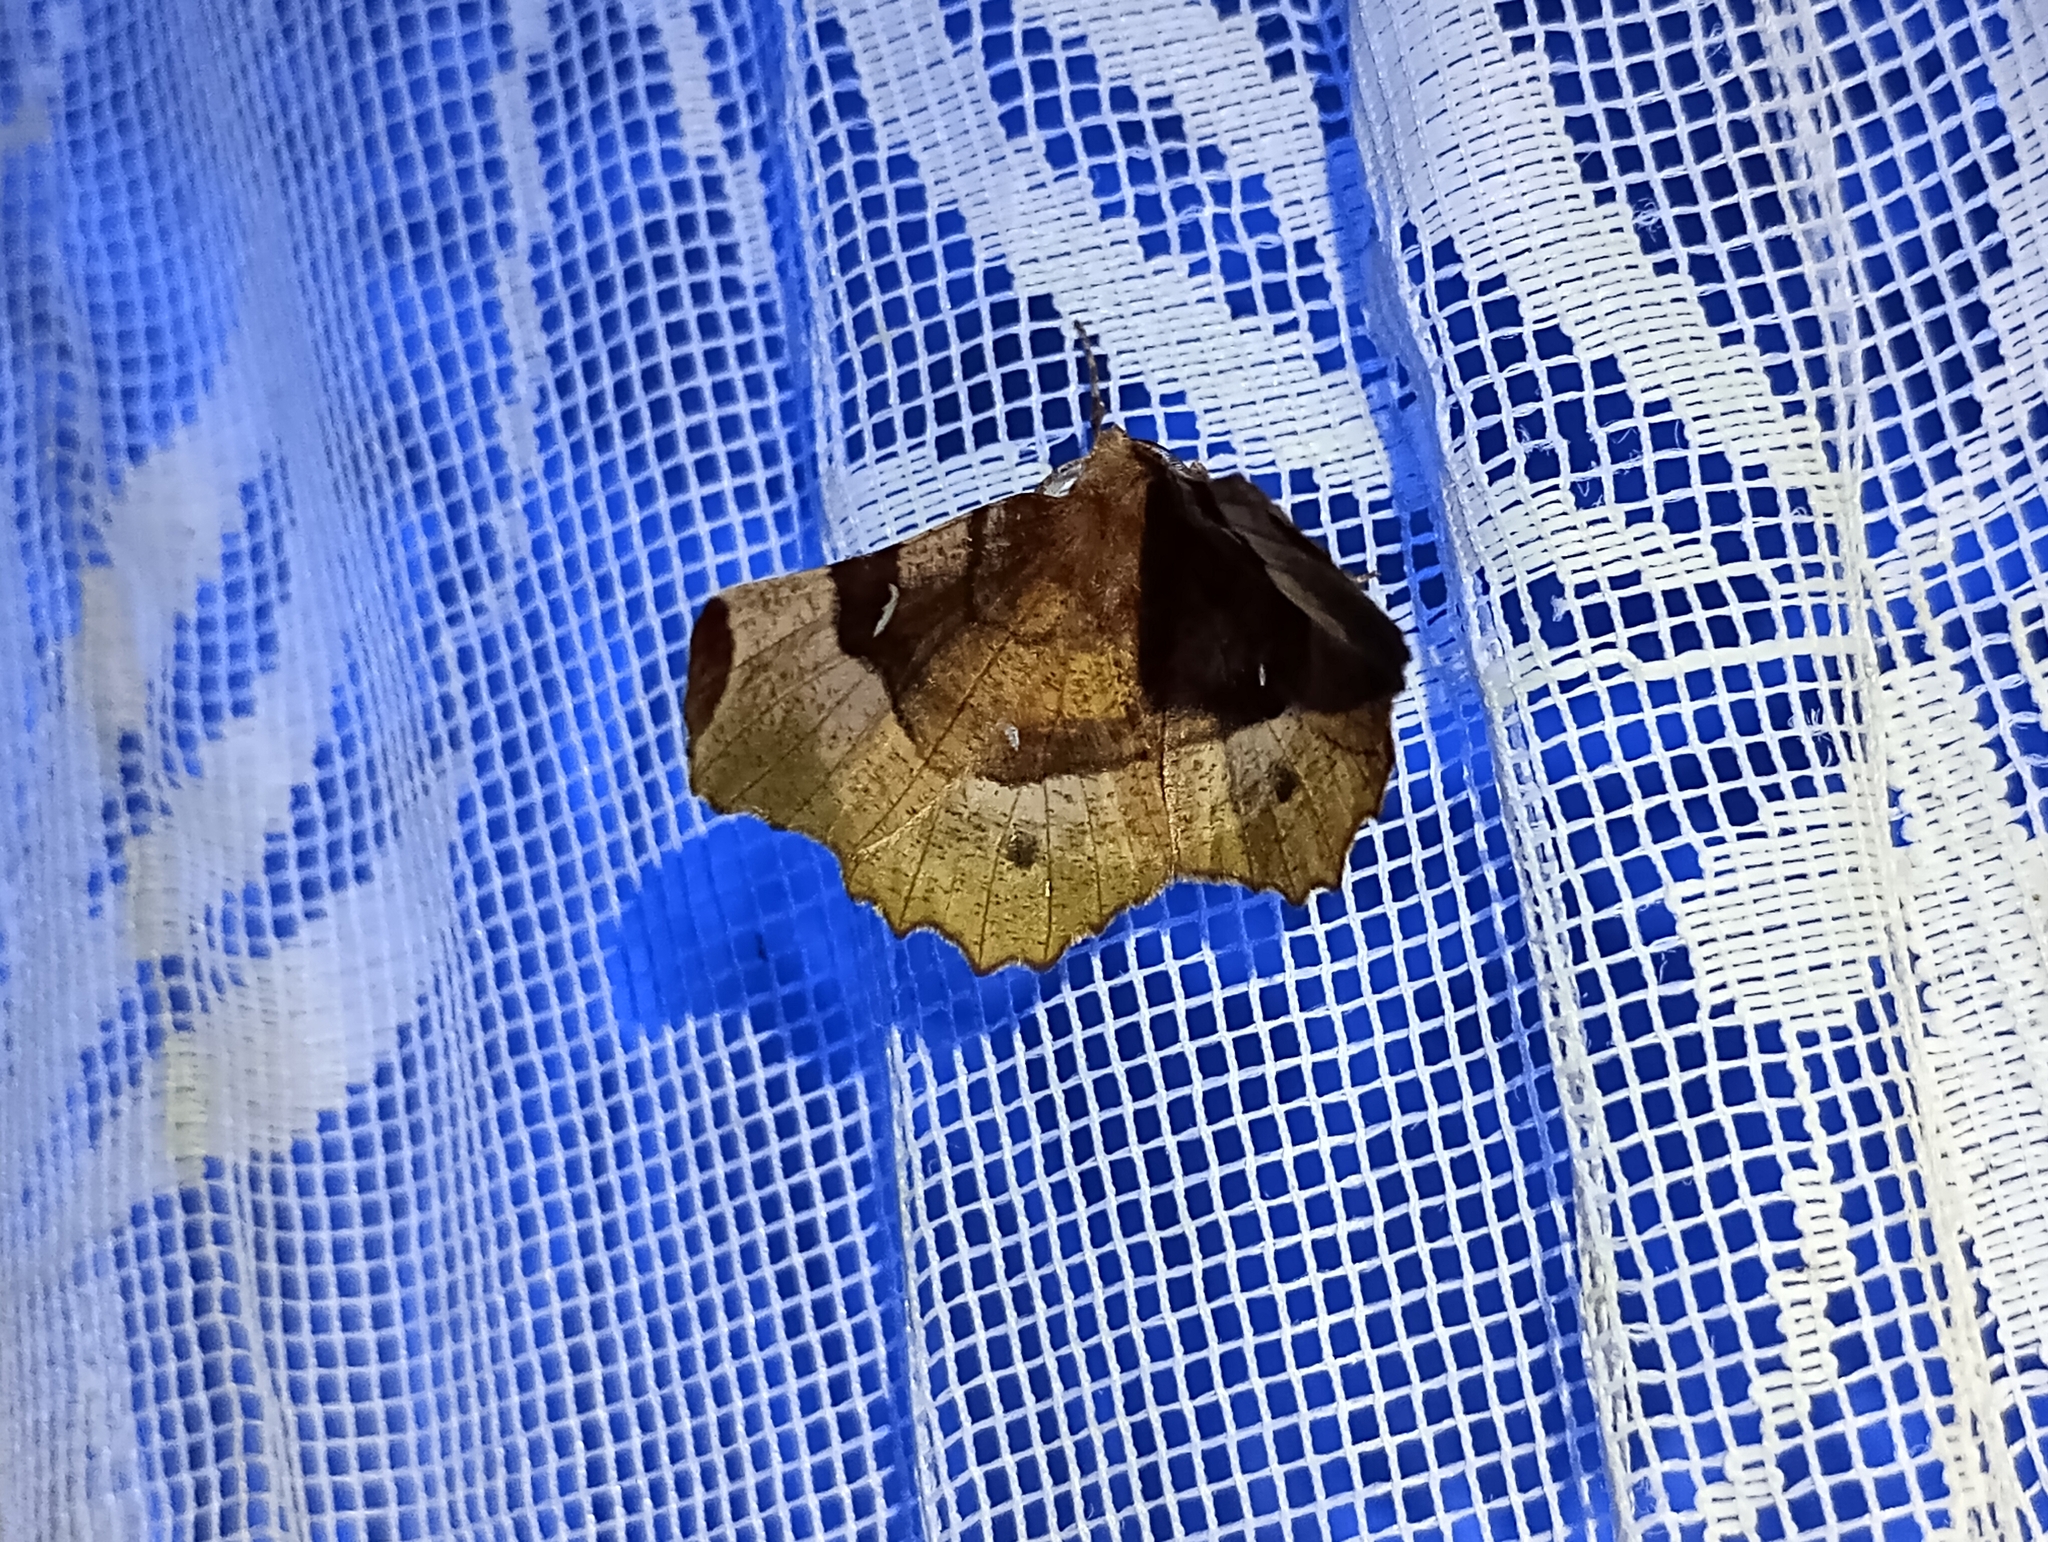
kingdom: Animalia
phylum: Arthropoda
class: Insecta
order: Lepidoptera
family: Geometridae
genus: Selenia
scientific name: Selenia tetralunaria
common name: Purple thorn
